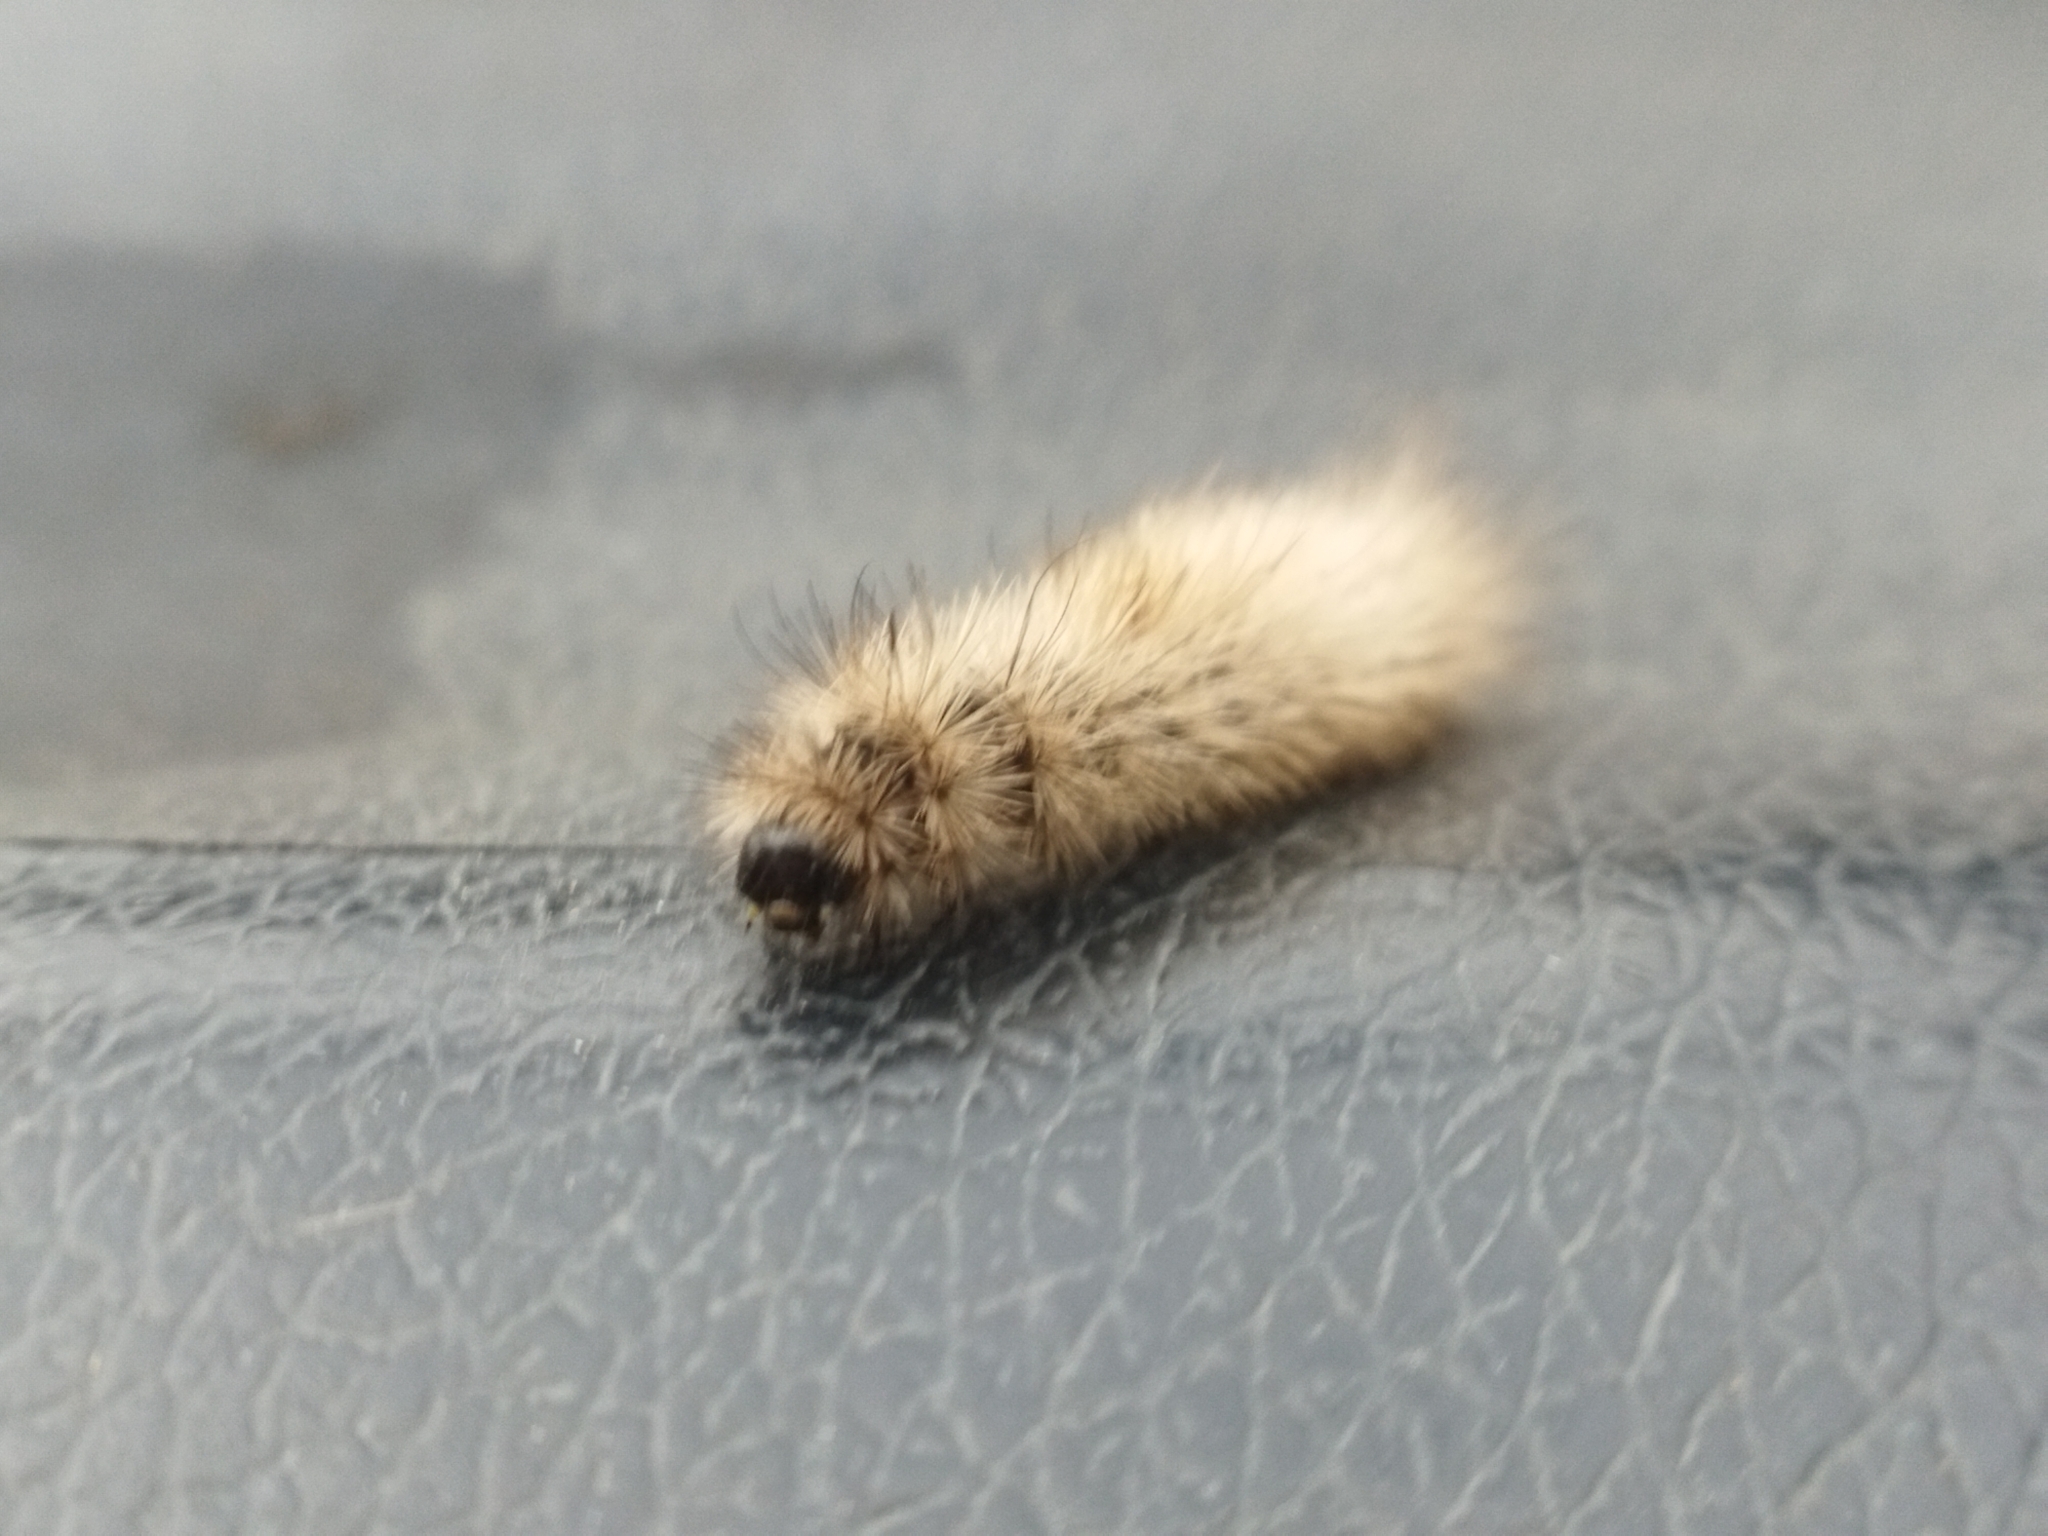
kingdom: Animalia
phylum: Arthropoda
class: Insecta
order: Lepidoptera
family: Erebidae
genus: Phragmatobia
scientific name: Phragmatobia fuliginosa
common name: Ruby tiger
